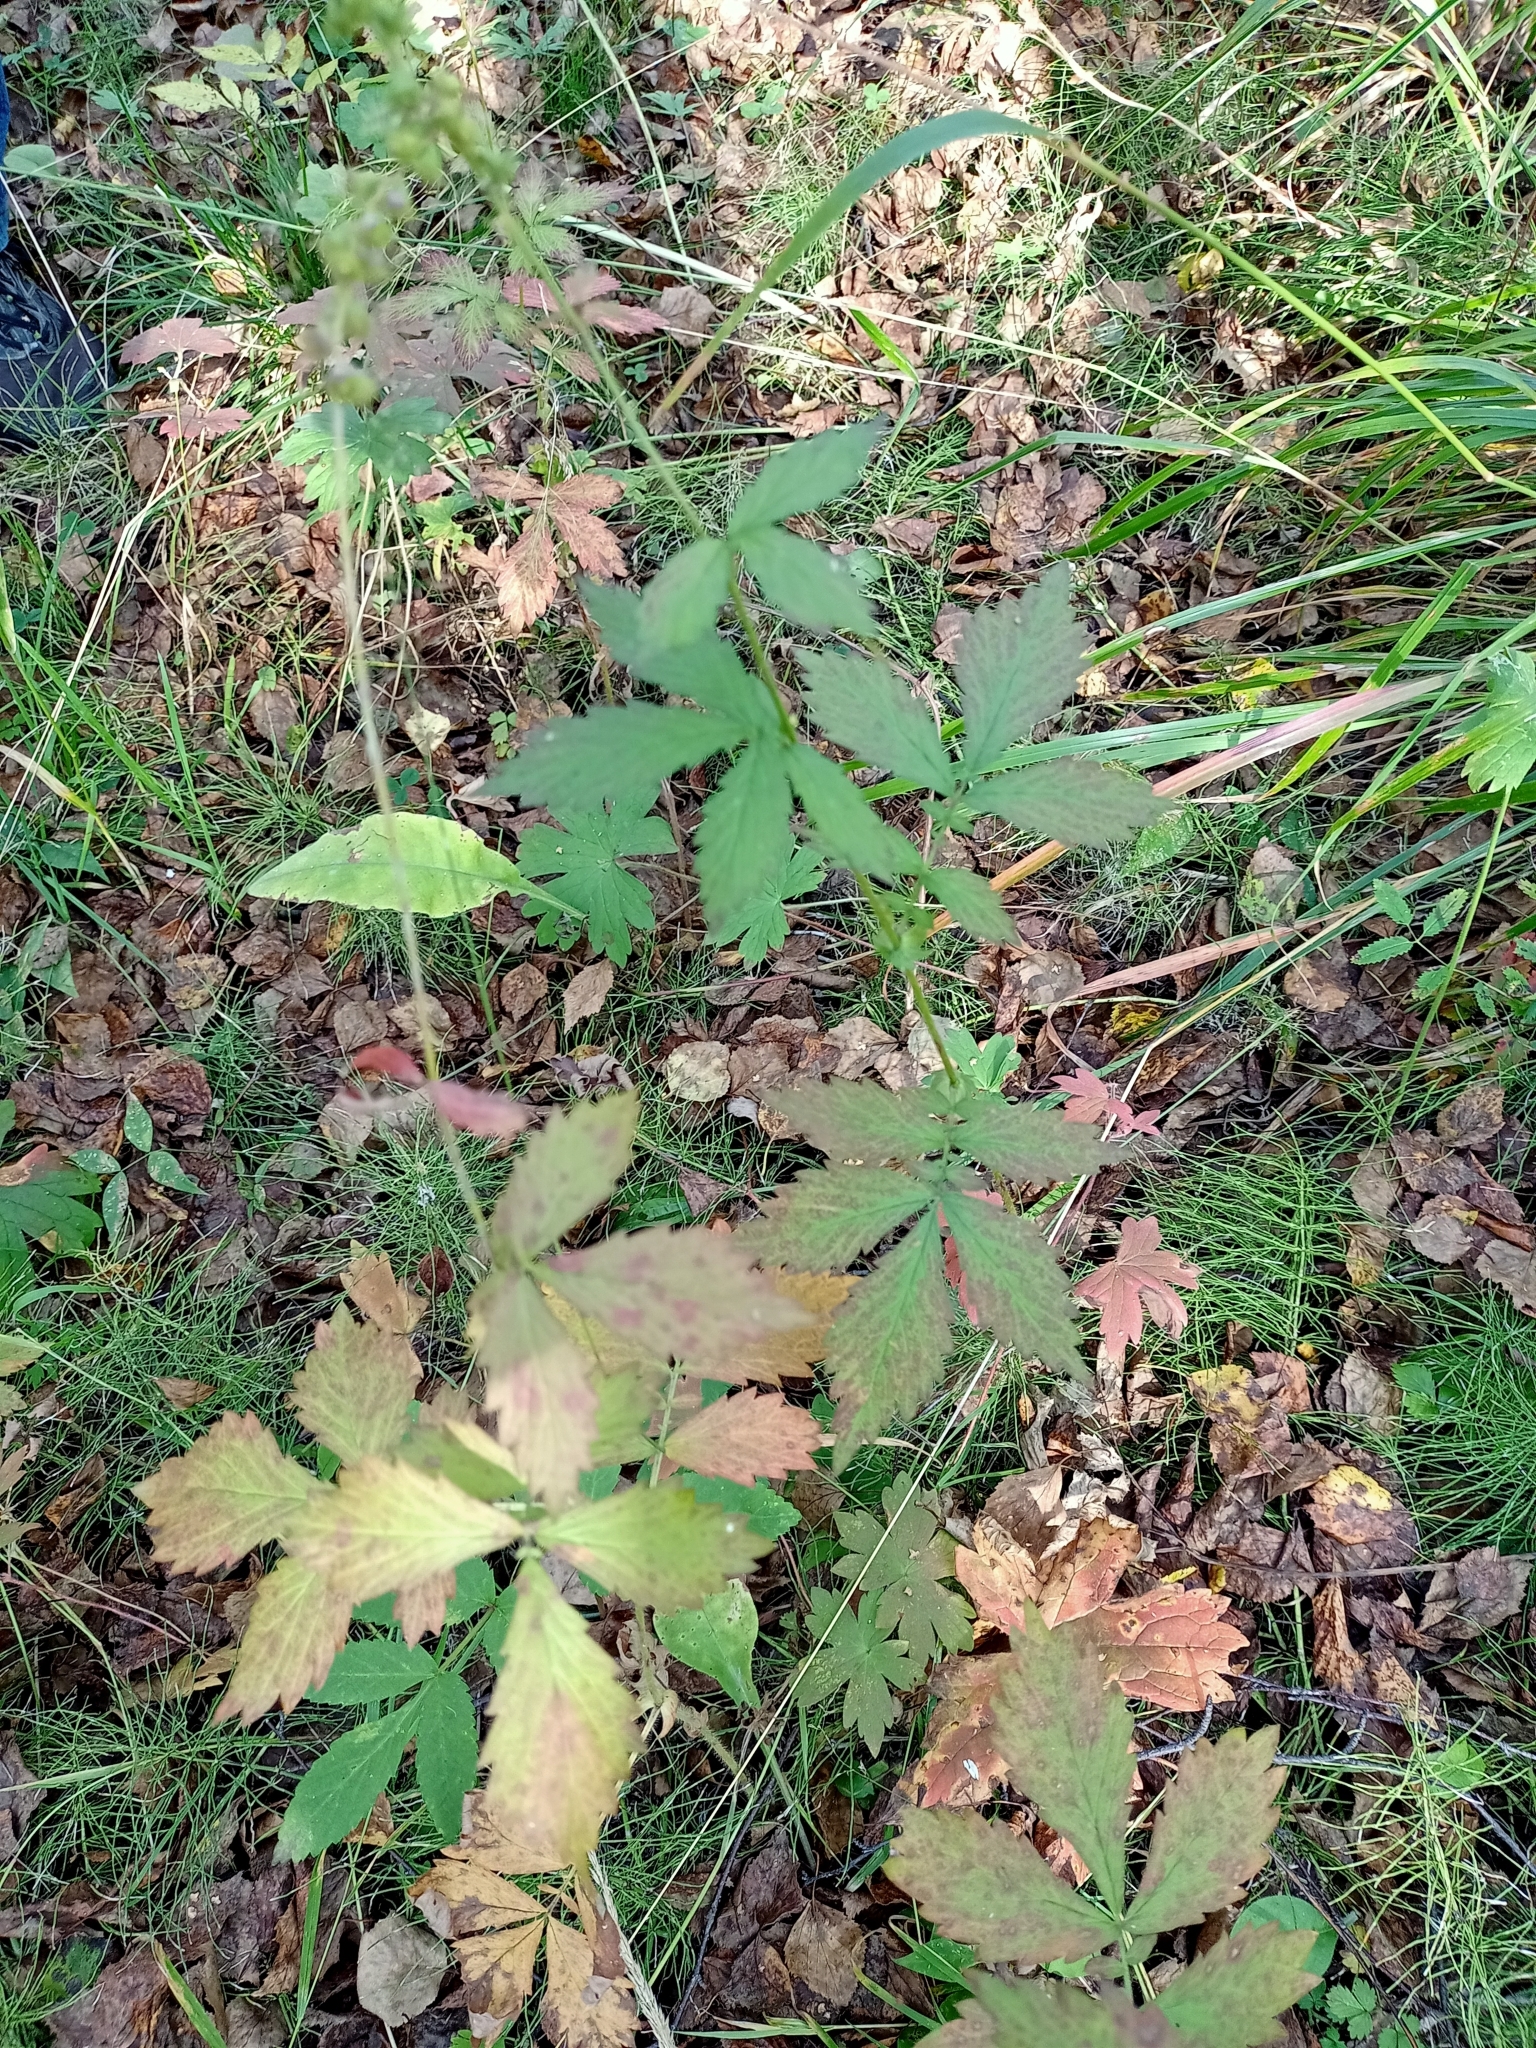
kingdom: Plantae
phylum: Tracheophyta
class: Magnoliopsida
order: Rosales
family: Rosaceae
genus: Agrimonia
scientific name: Agrimonia pilosa
